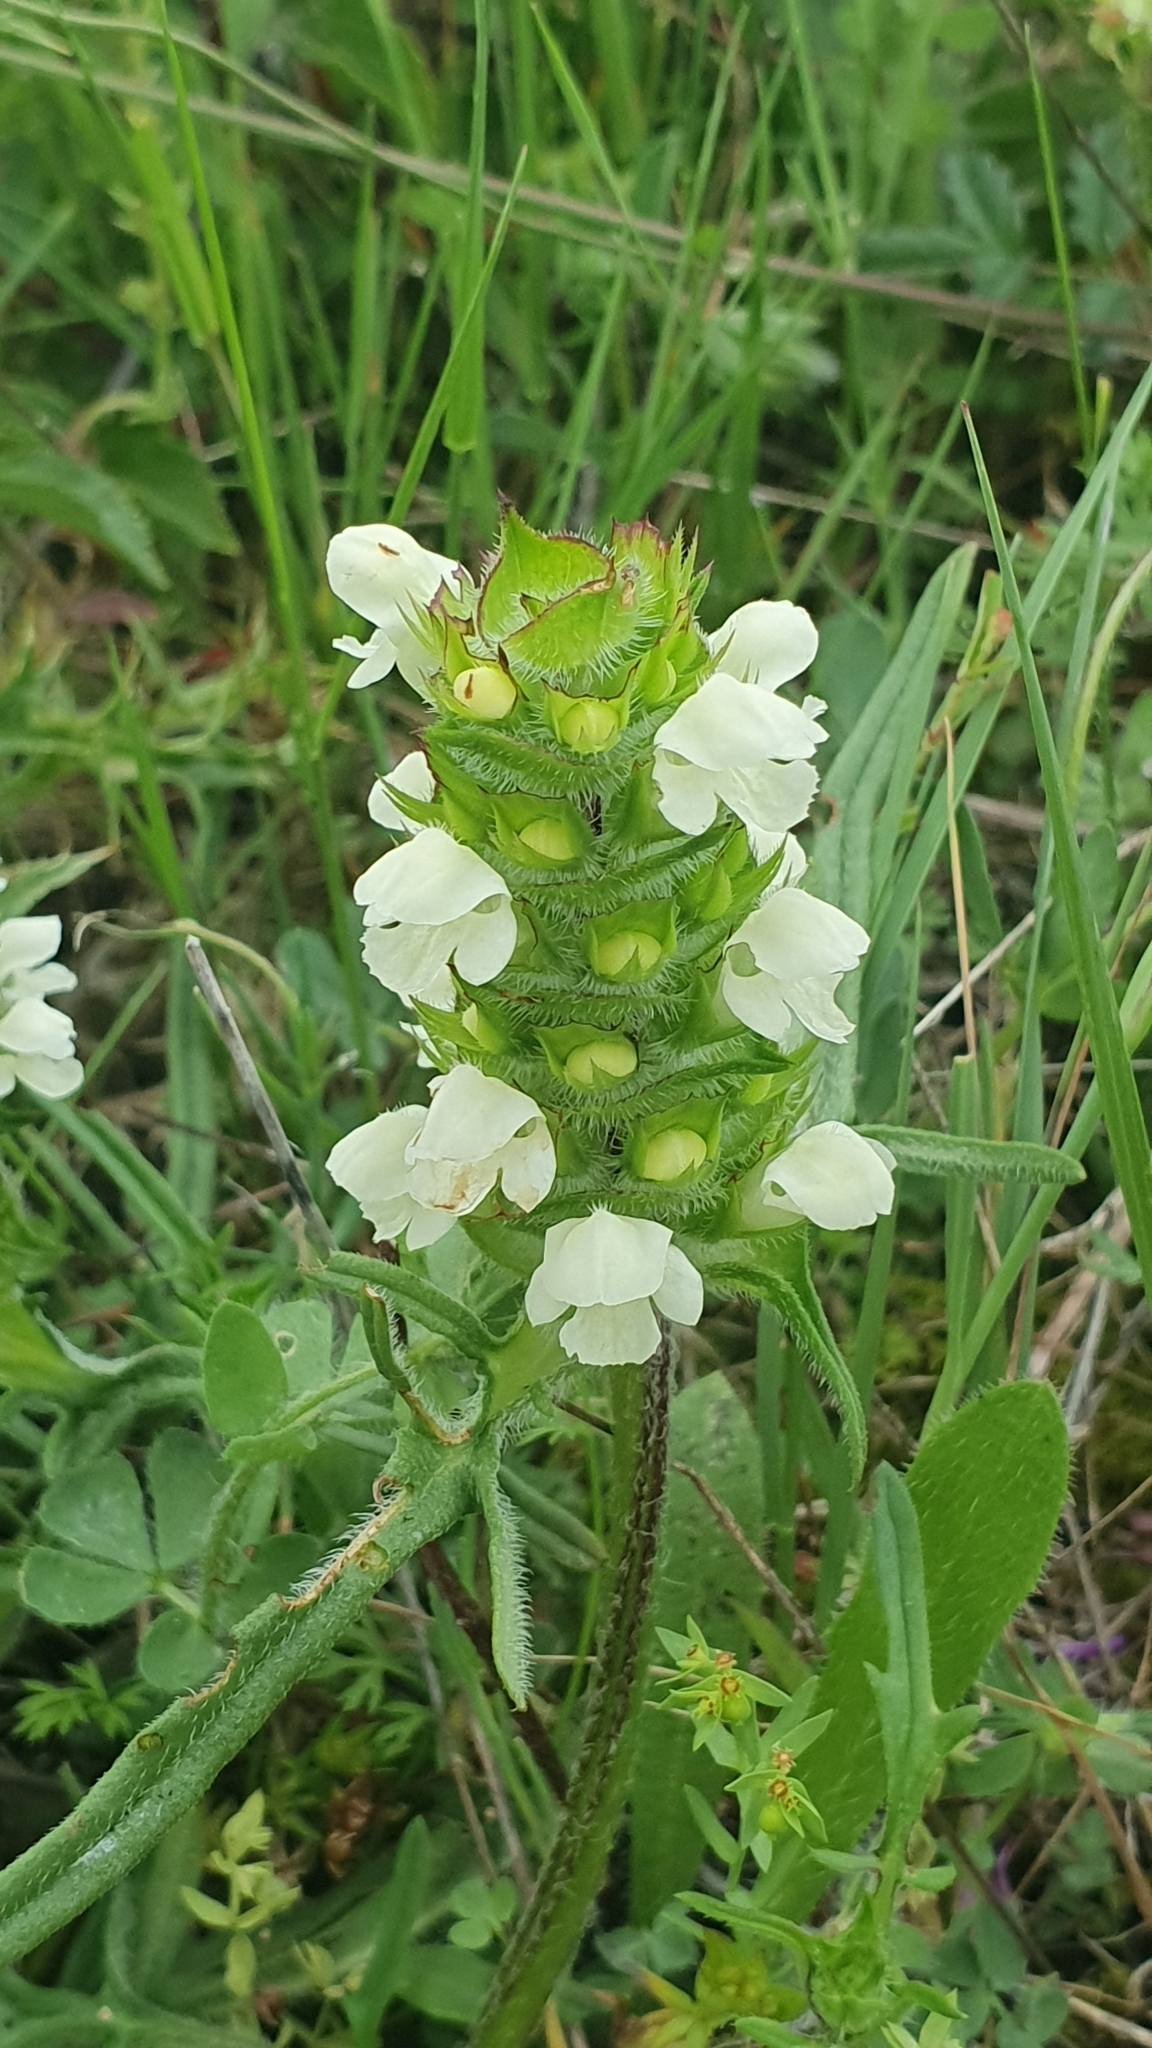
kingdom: Plantae
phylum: Tracheophyta
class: Magnoliopsida
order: Lamiales
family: Lamiaceae
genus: Prunella
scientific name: Prunella laciniata
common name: Cut-leaved selfheal
